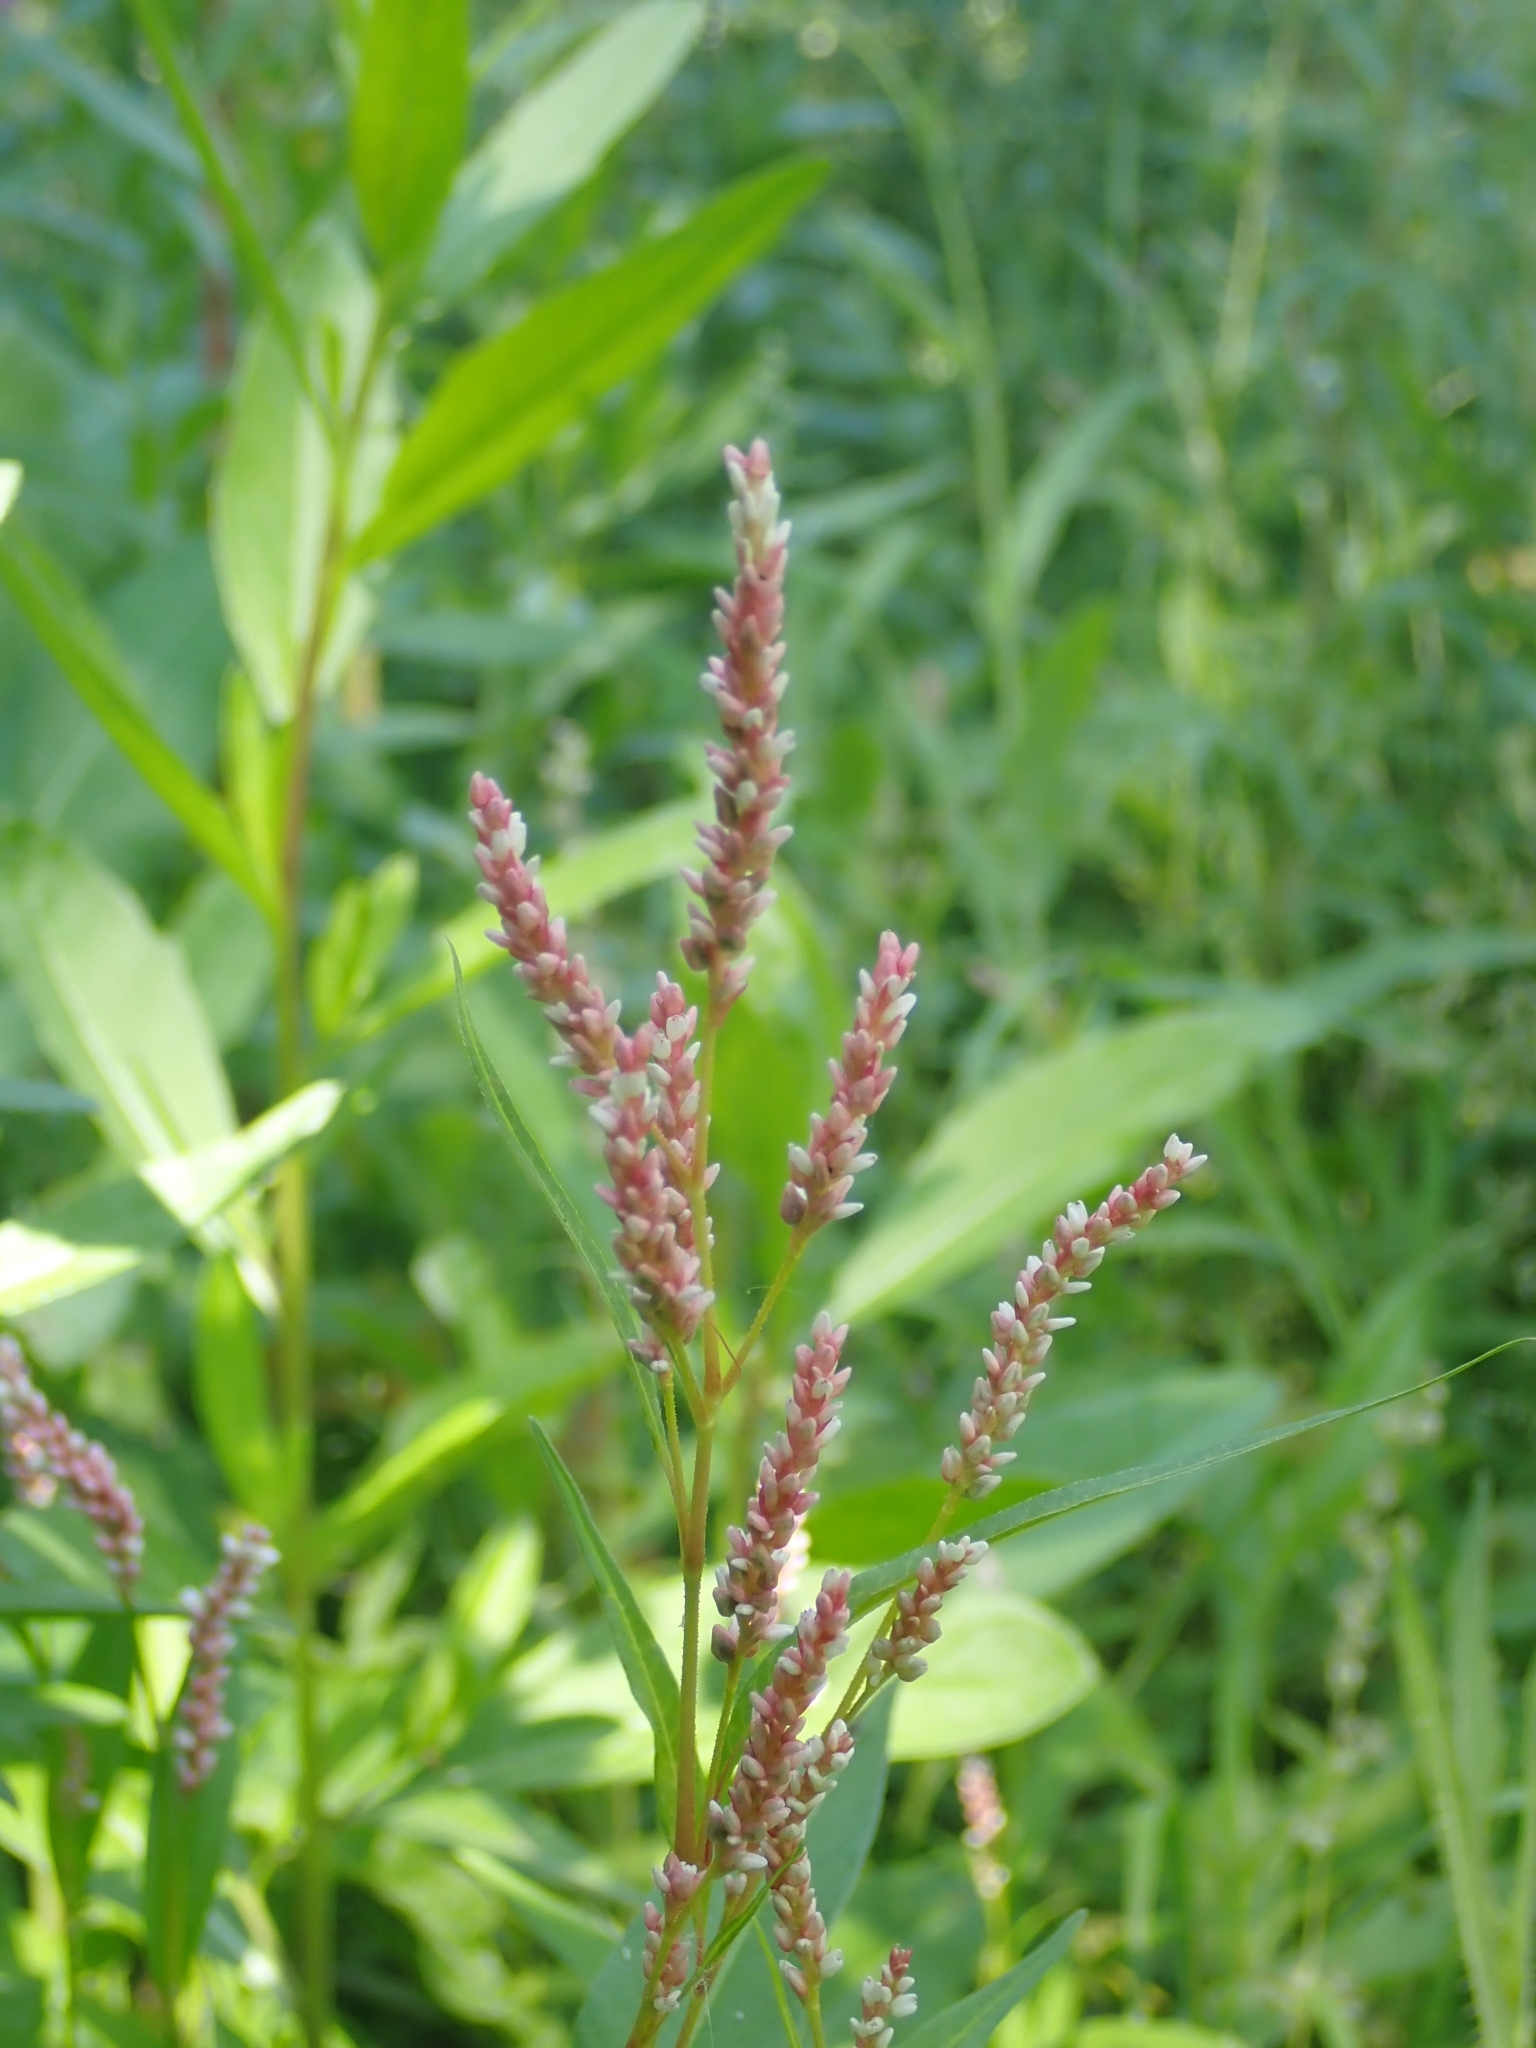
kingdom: Plantae
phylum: Tracheophyta
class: Magnoliopsida
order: Caryophyllales
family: Polygonaceae
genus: Persicaria
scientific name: Persicaria lapathifolia
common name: Curlytop knotweed
